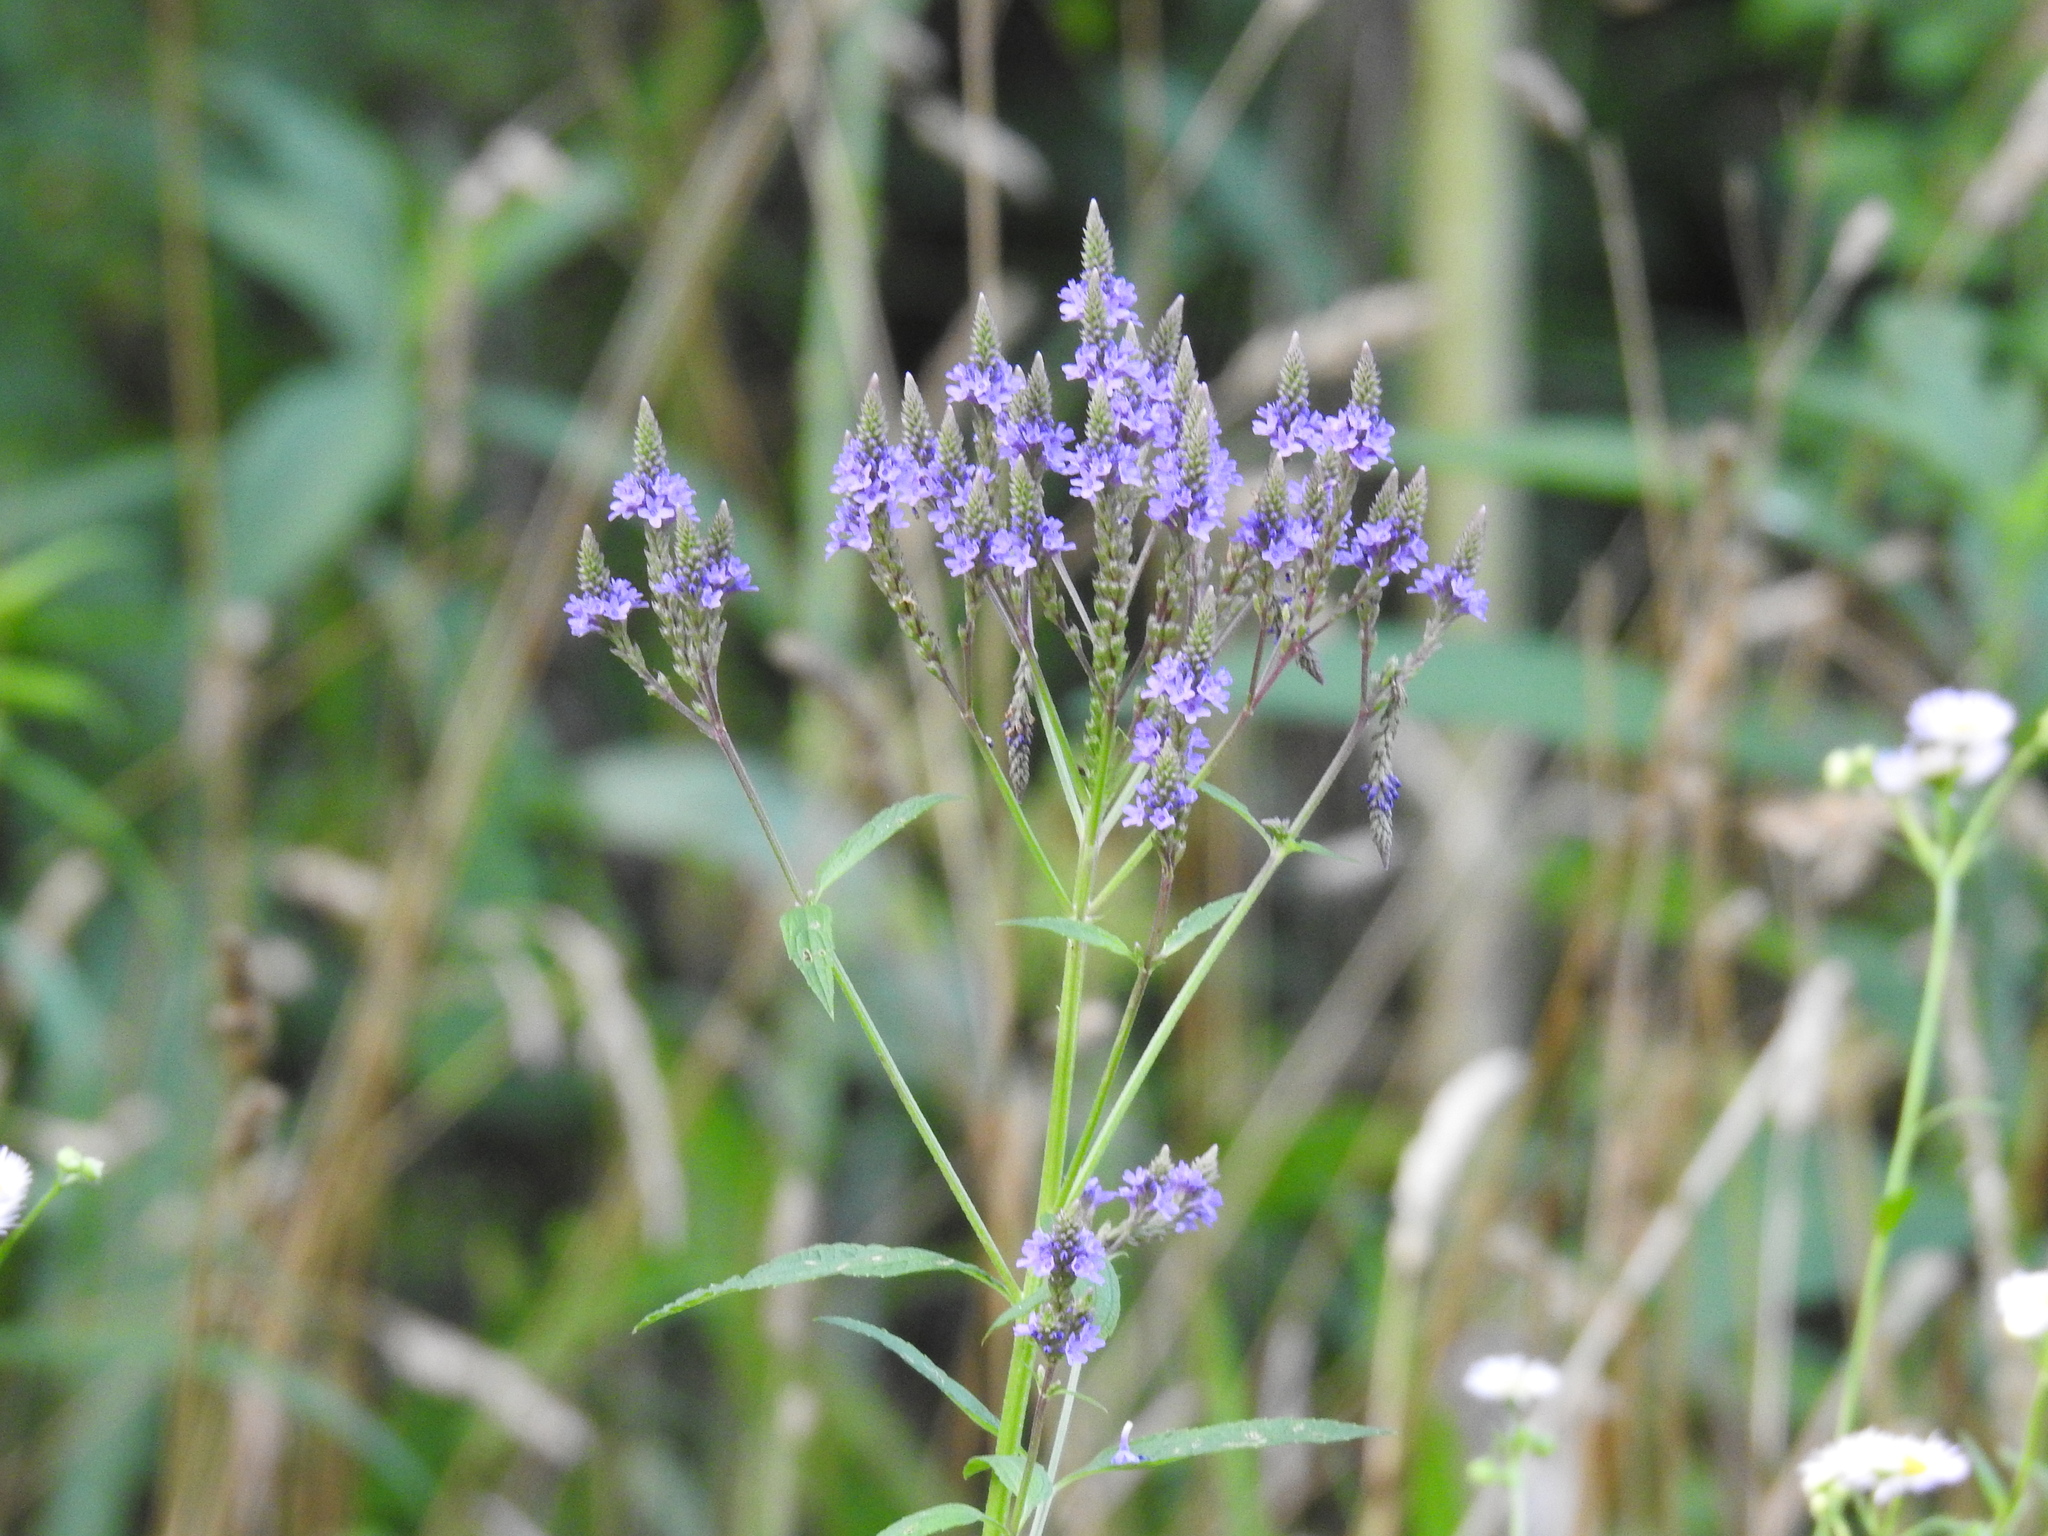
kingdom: Plantae
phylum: Tracheophyta
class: Magnoliopsida
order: Lamiales
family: Verbenaceae
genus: Verbena
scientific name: Verbena hastata
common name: American blue vervain
